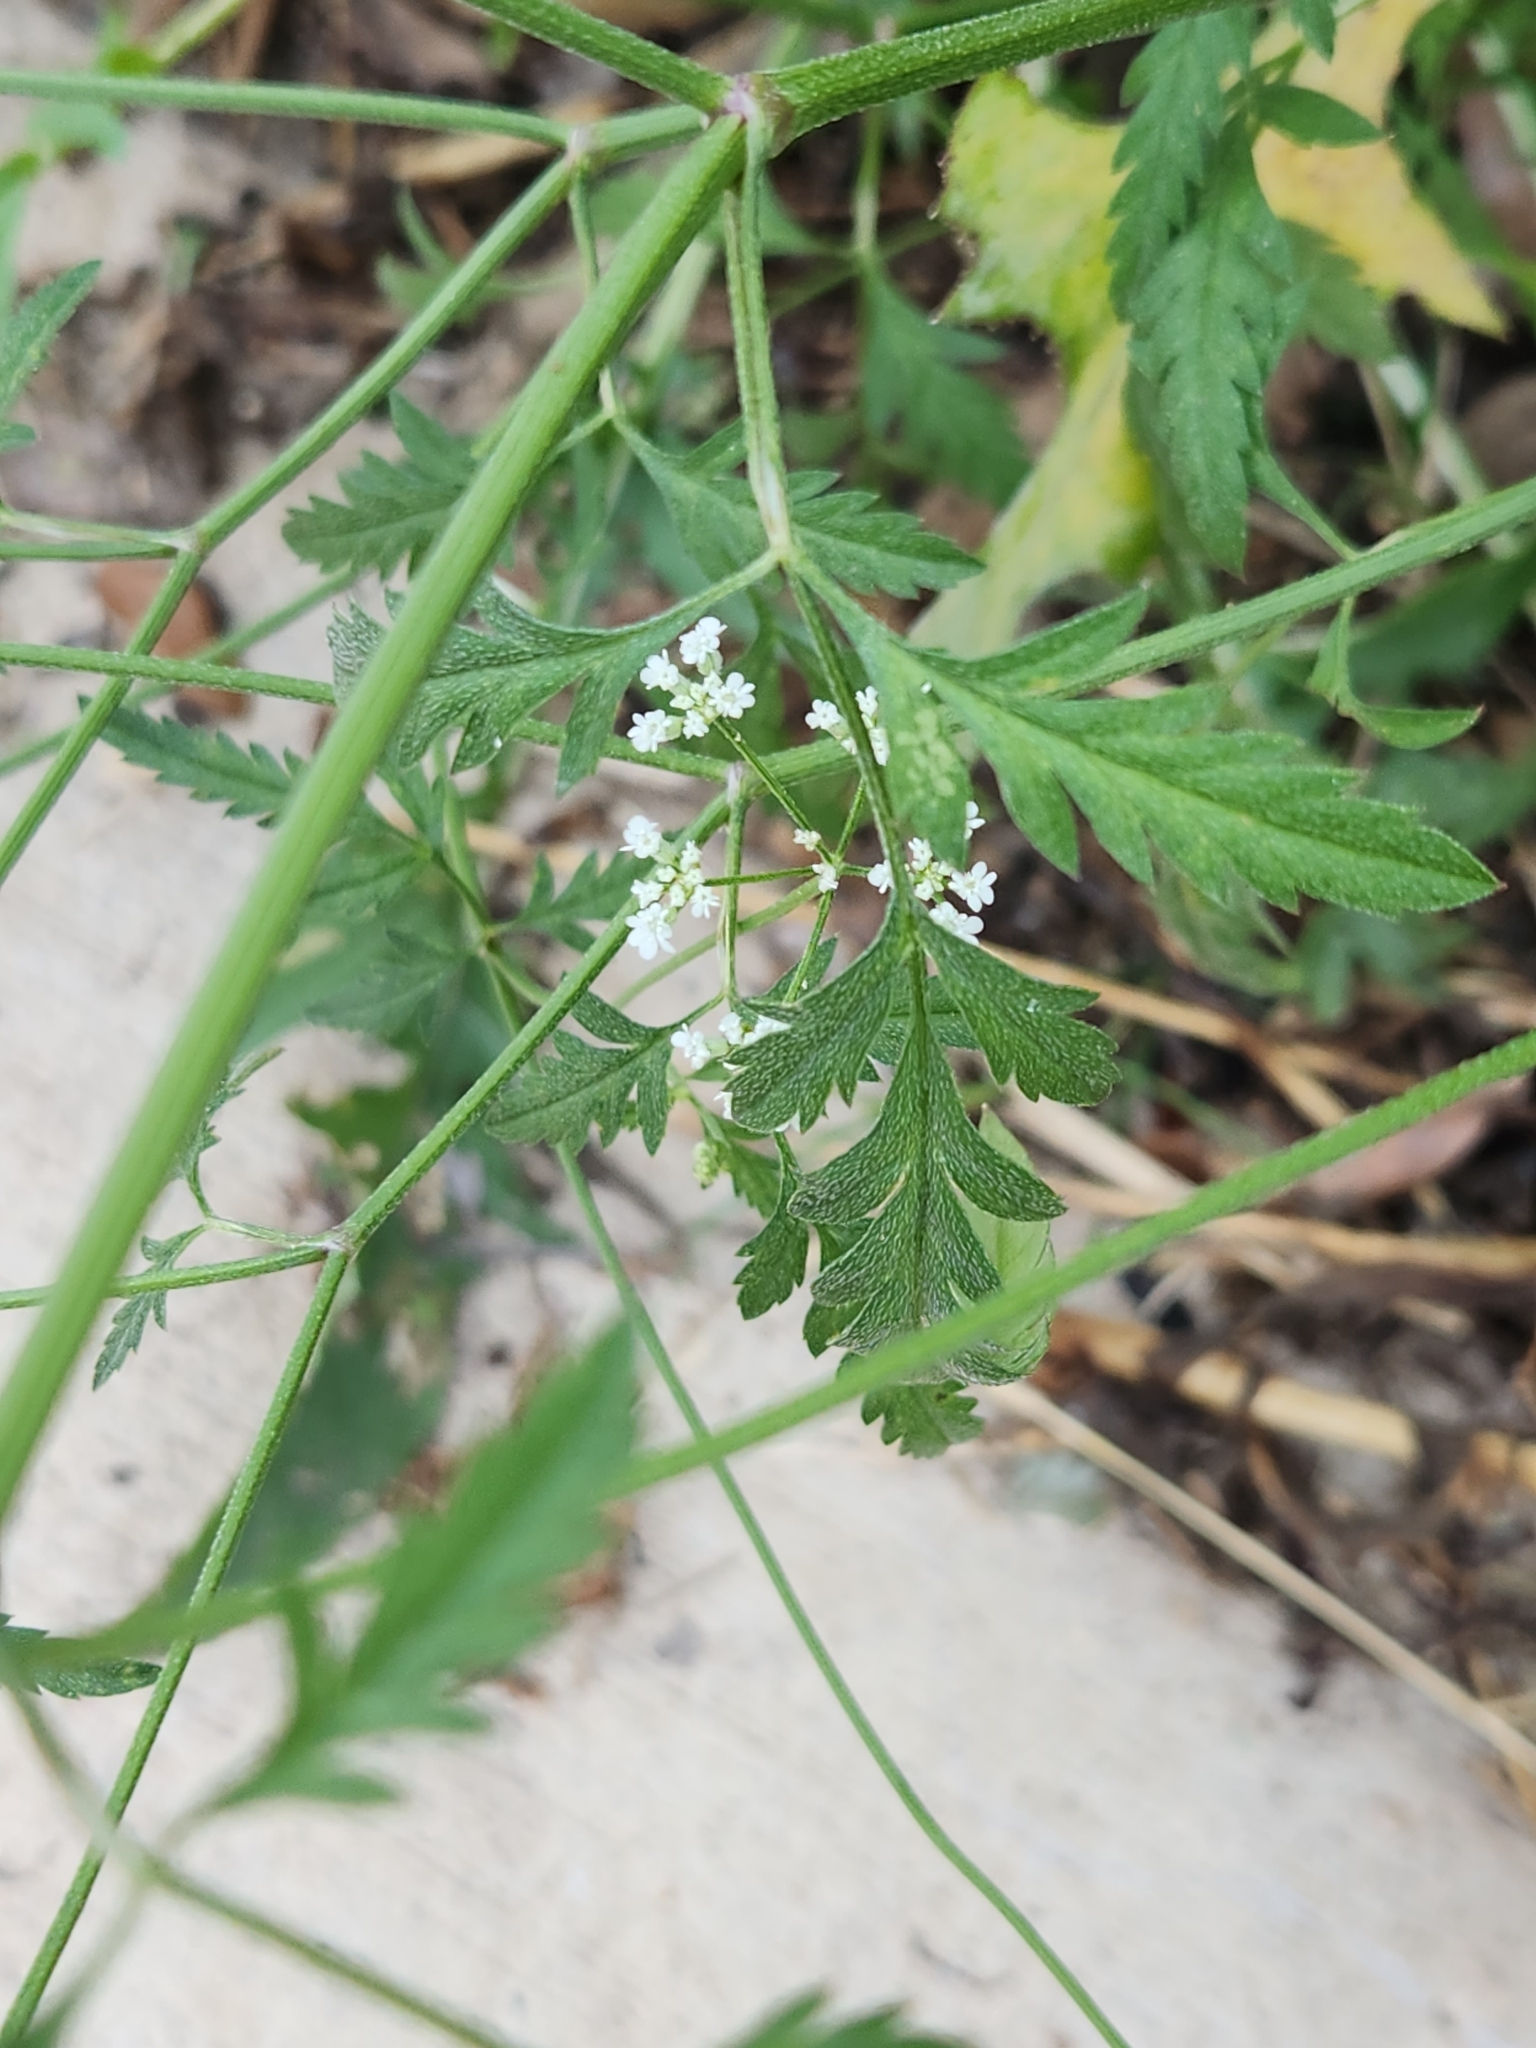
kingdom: Plantae
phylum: Tracheophyta
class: Magnoliopsida
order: Apiales
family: Apiaceae
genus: Torilis
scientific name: Torilis arvensis
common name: Spreading hedge-parsley
